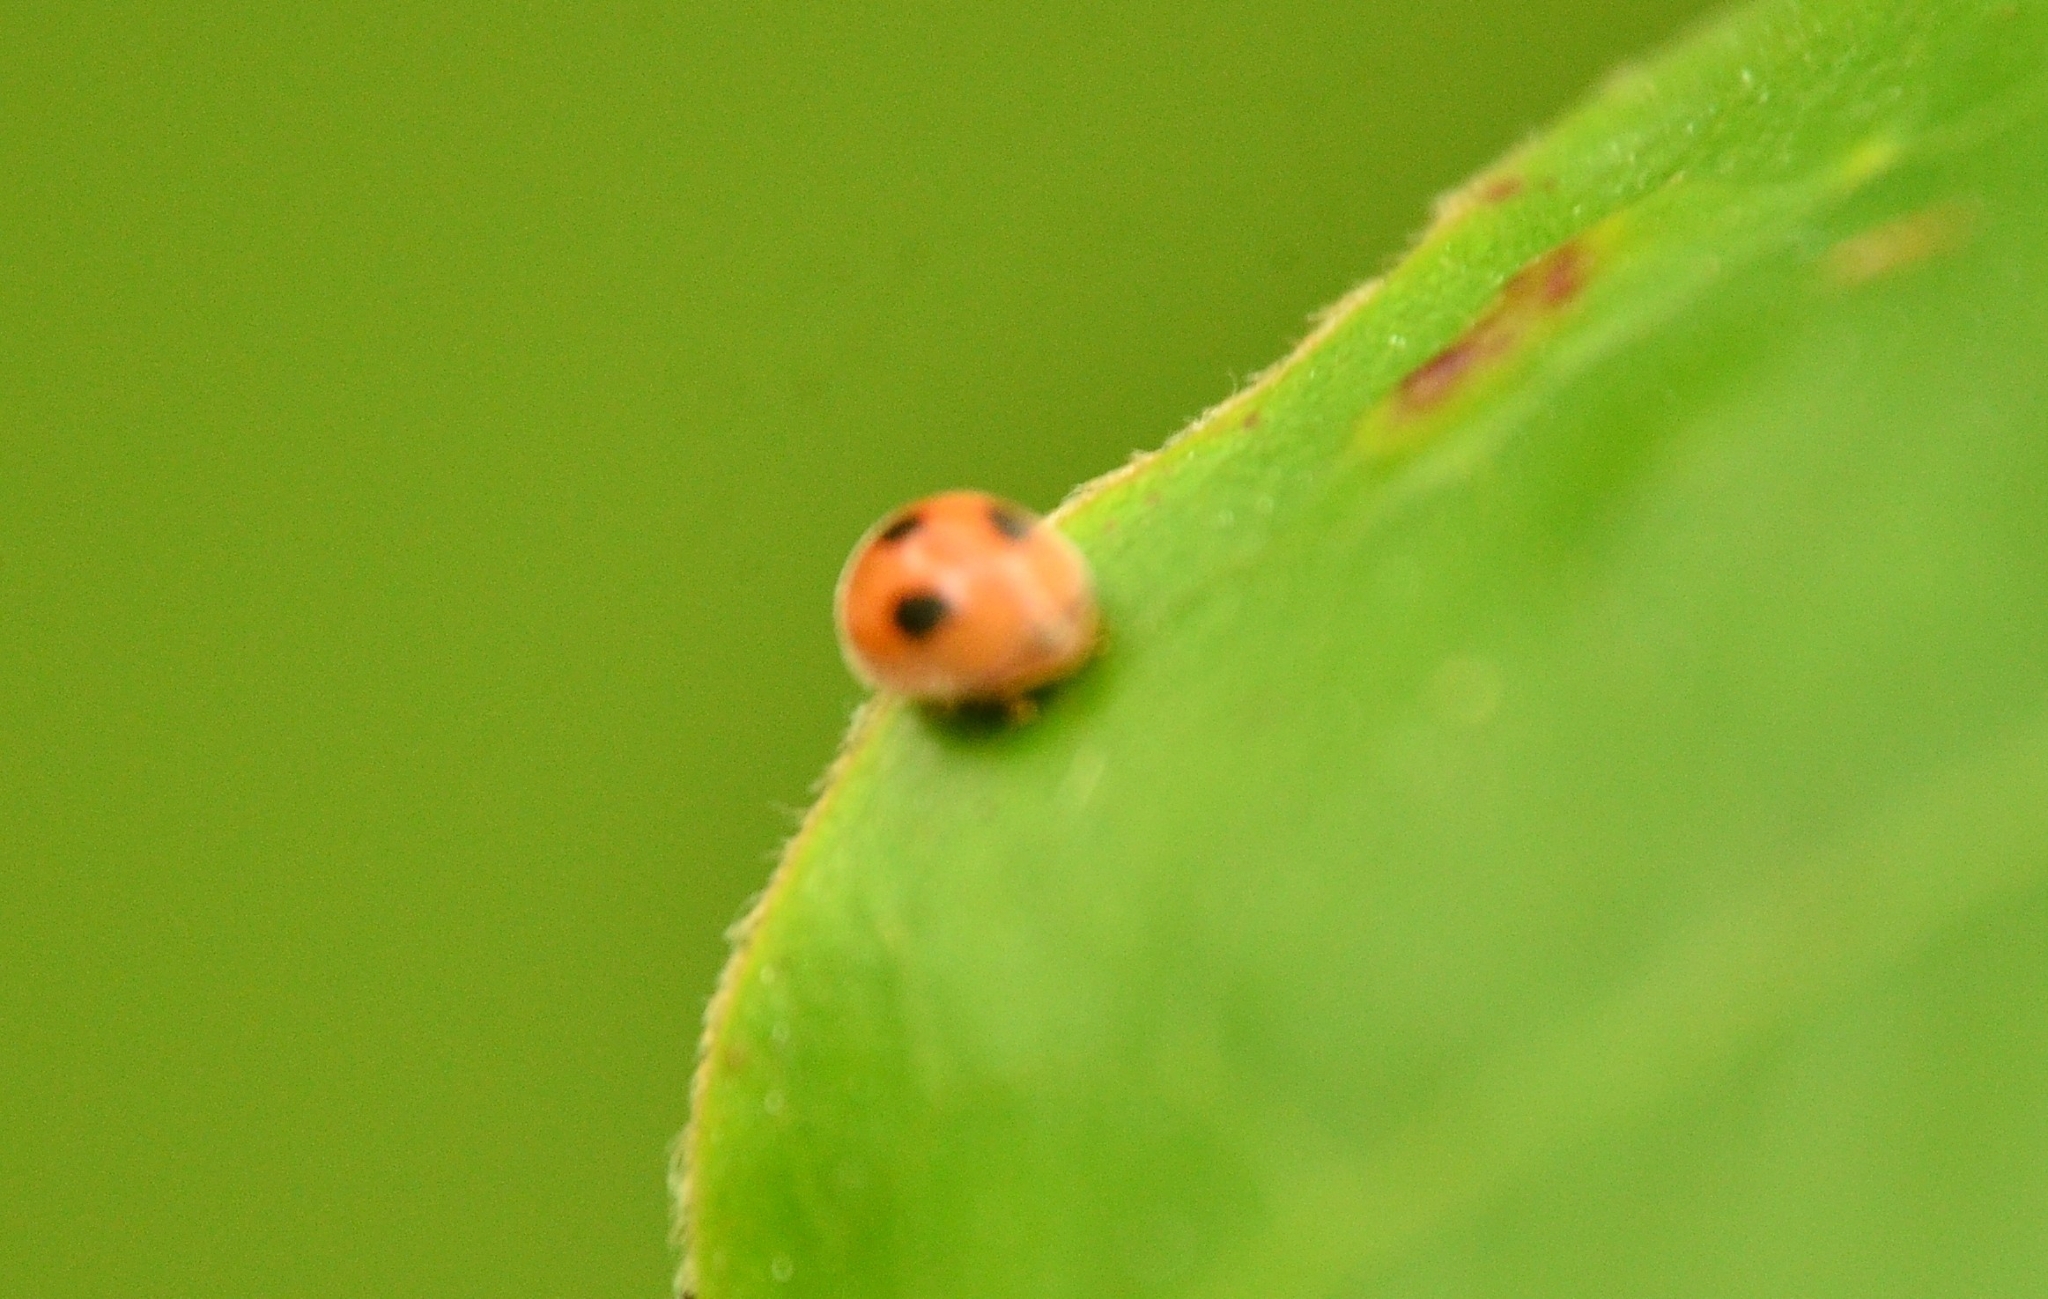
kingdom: Animalia
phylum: Arthropoda
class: Insecta
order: Coleoptera
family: Coccinellidae
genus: Pseudaspidimerus
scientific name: Pseudaspidimerus
